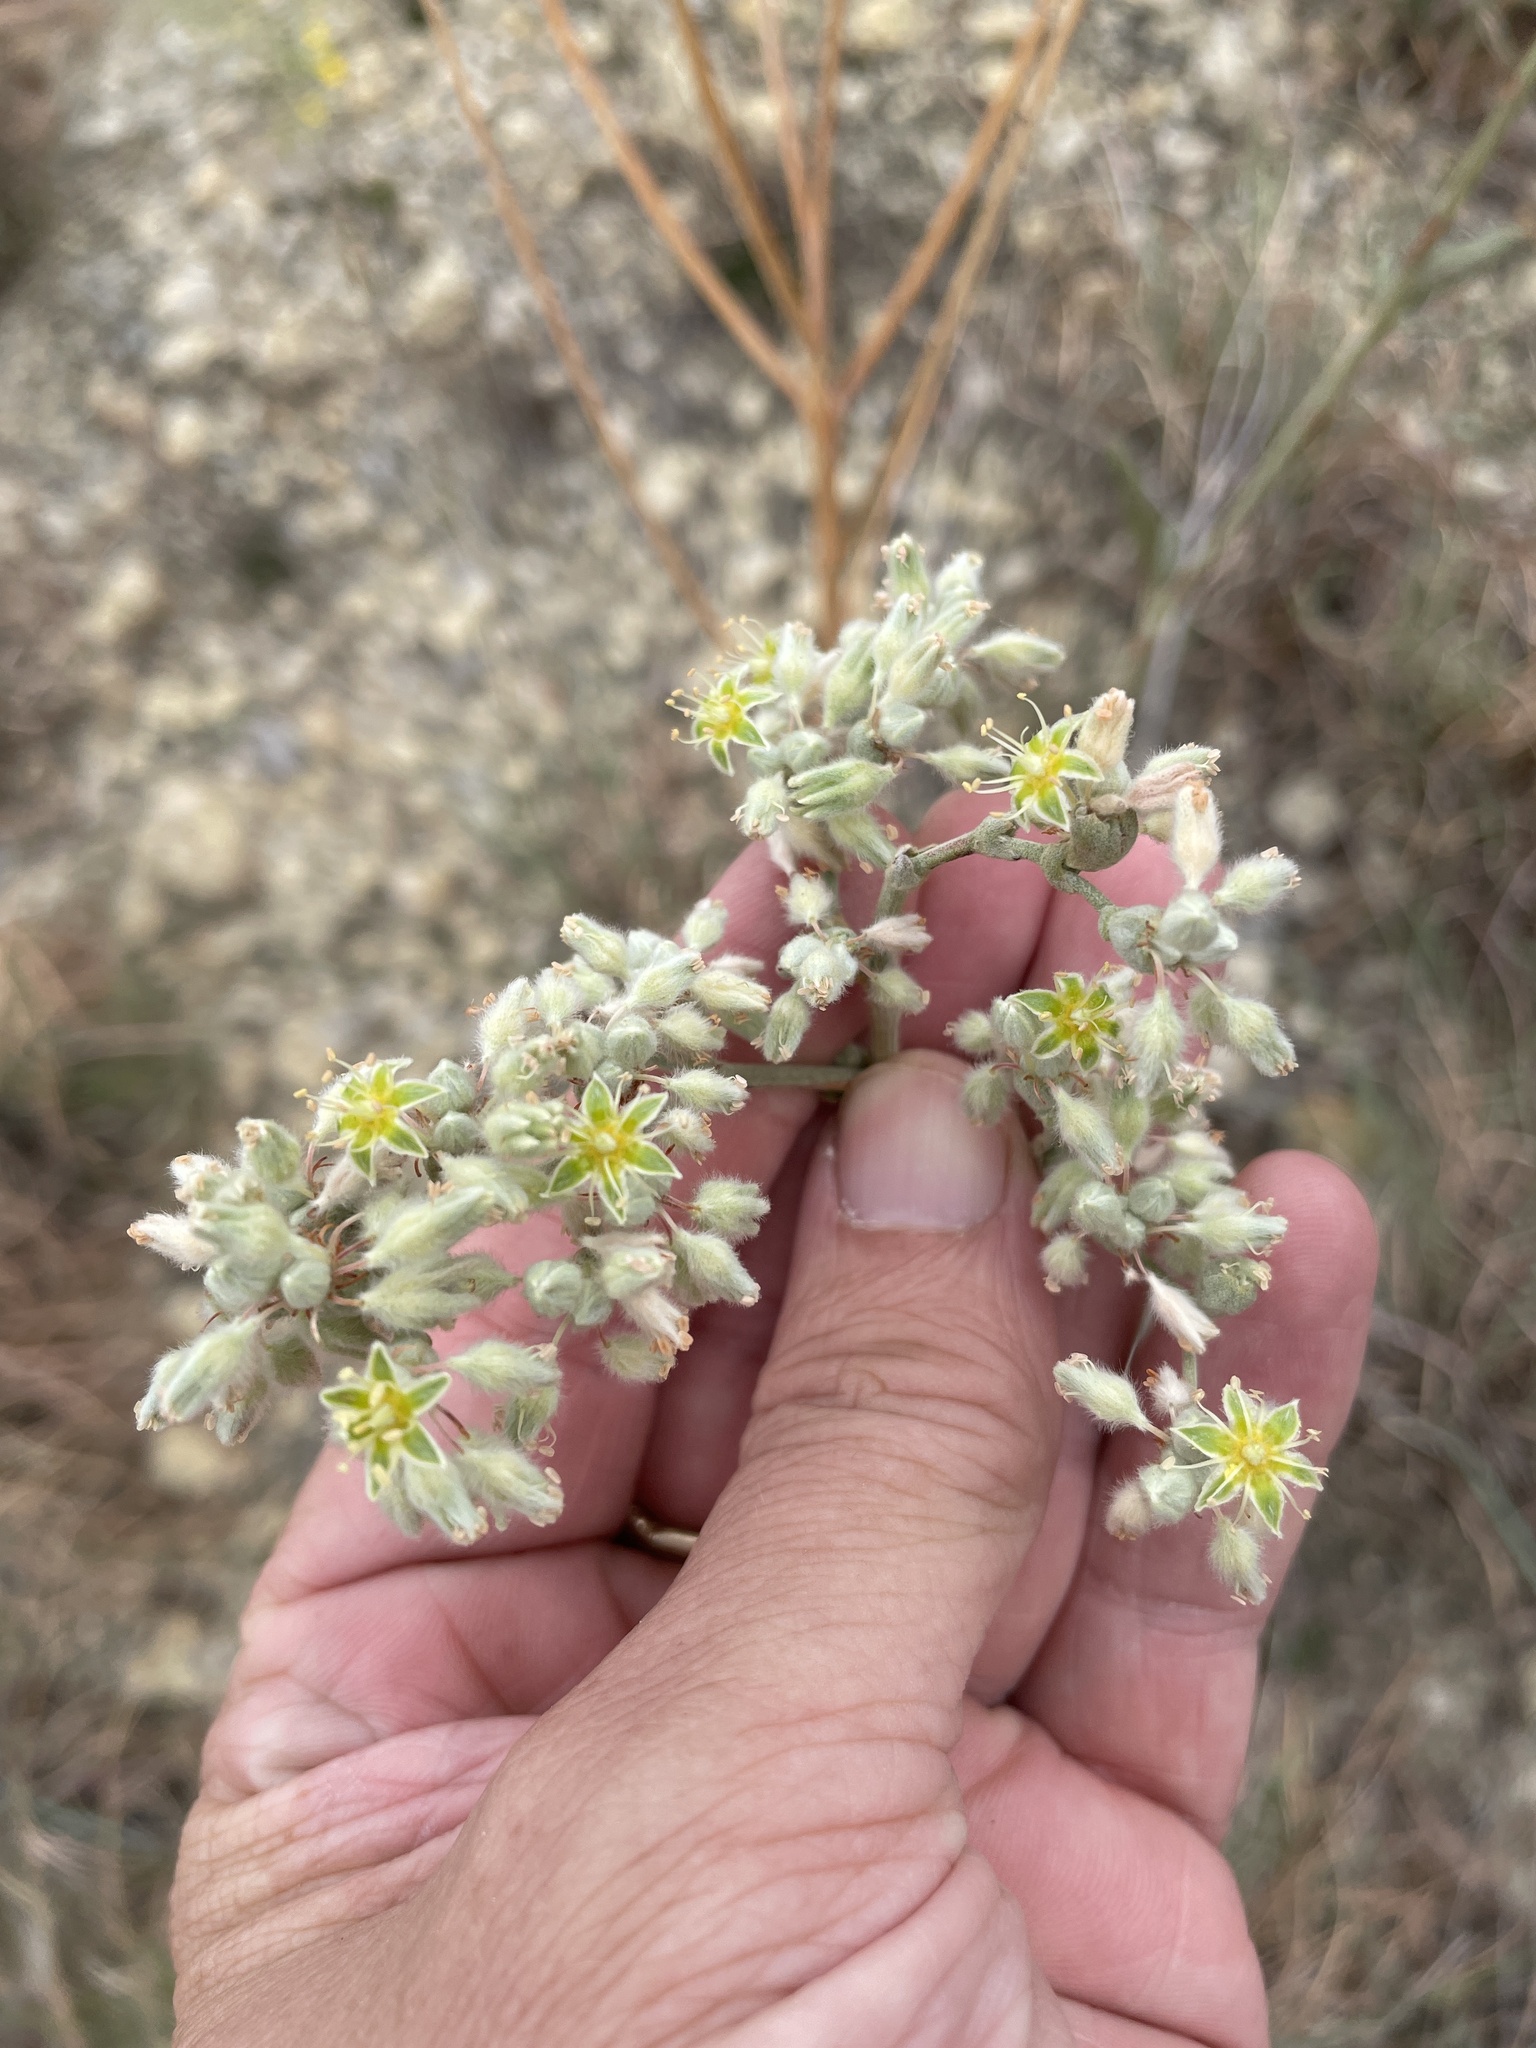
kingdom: Plantae
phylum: Tracheophyta
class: Magnoliopsida
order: Caryophyllales
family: Polygonaceae
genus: Eriogonum
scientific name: Eriogonum longifolium
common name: Longleaf wild buckwheat
